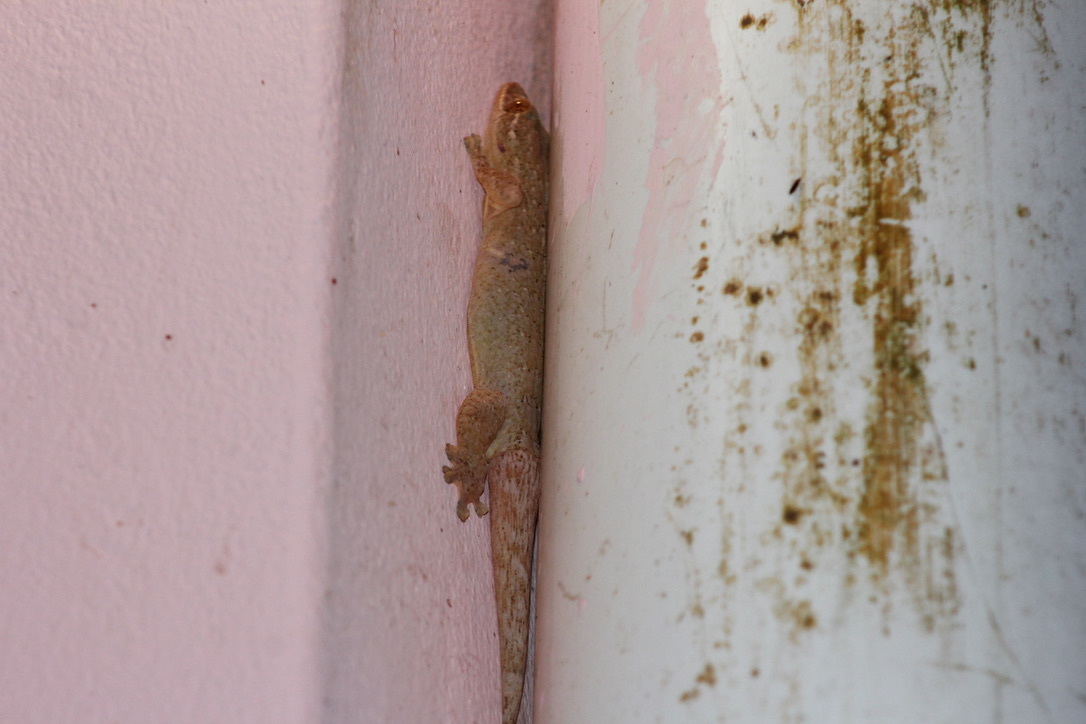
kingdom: Animalia
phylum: Chordata
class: Squamata
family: Phyllodactylidae
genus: Thecadactylus
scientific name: Thecadactylus rapicauda
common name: Turnip-tailed gecko
